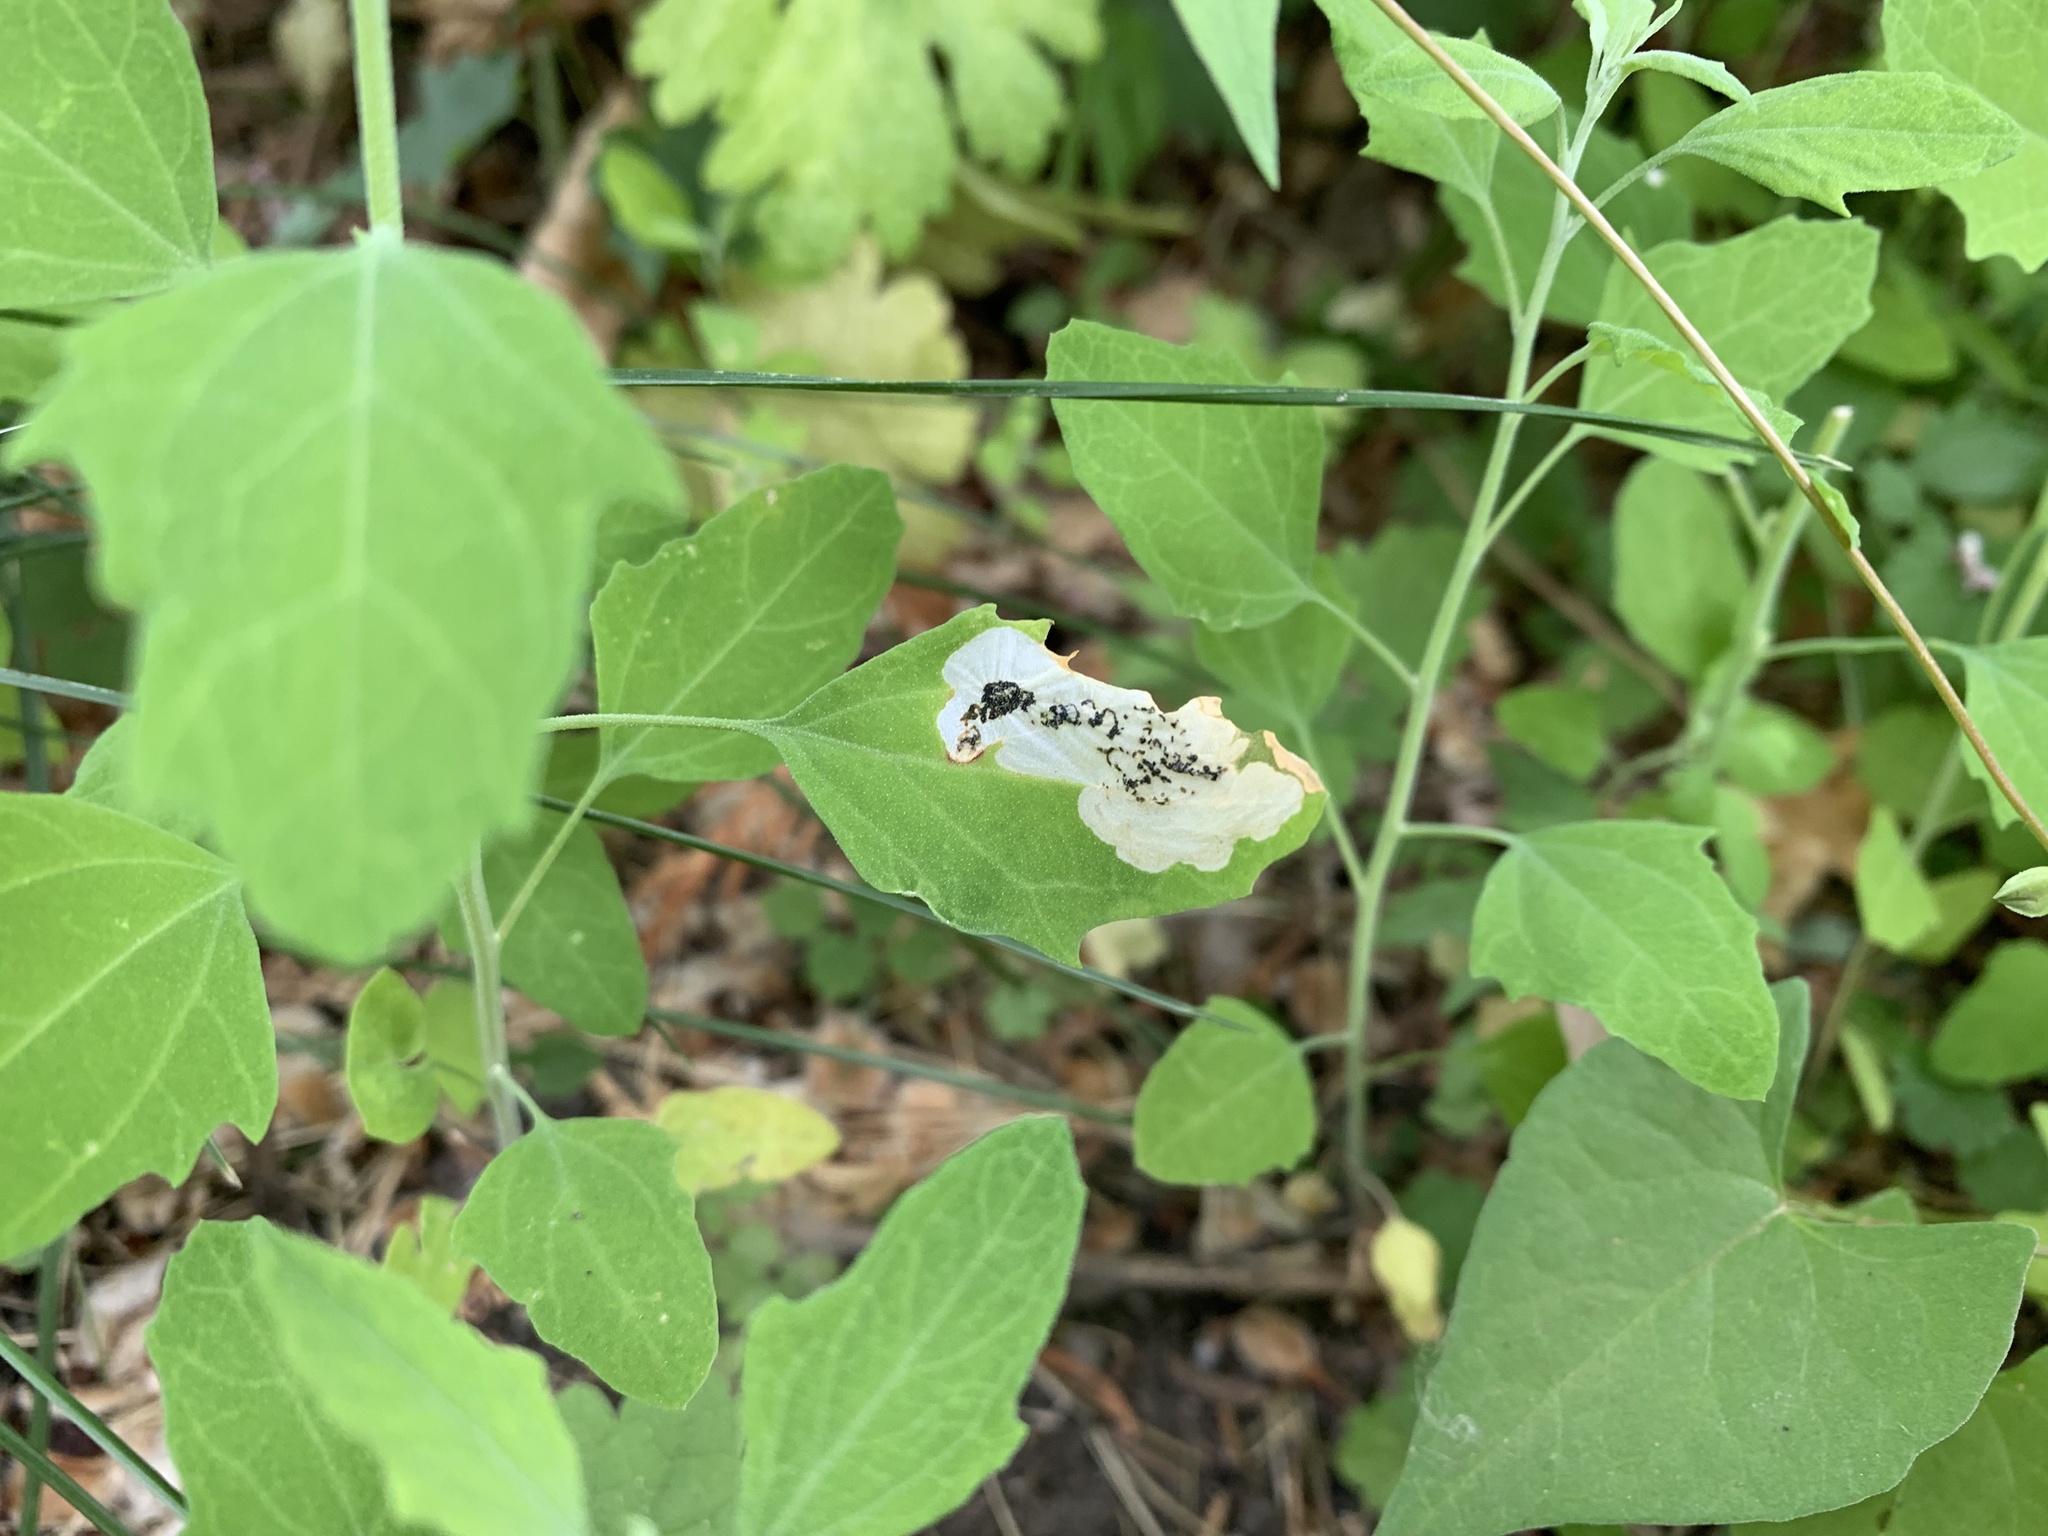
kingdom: Animalia
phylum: Arthropoda
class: Insecta
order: Lepidoptera
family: Gelechiidae
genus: Chrysoesthia
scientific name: Chrysoesthia sexguttella
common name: Moth
